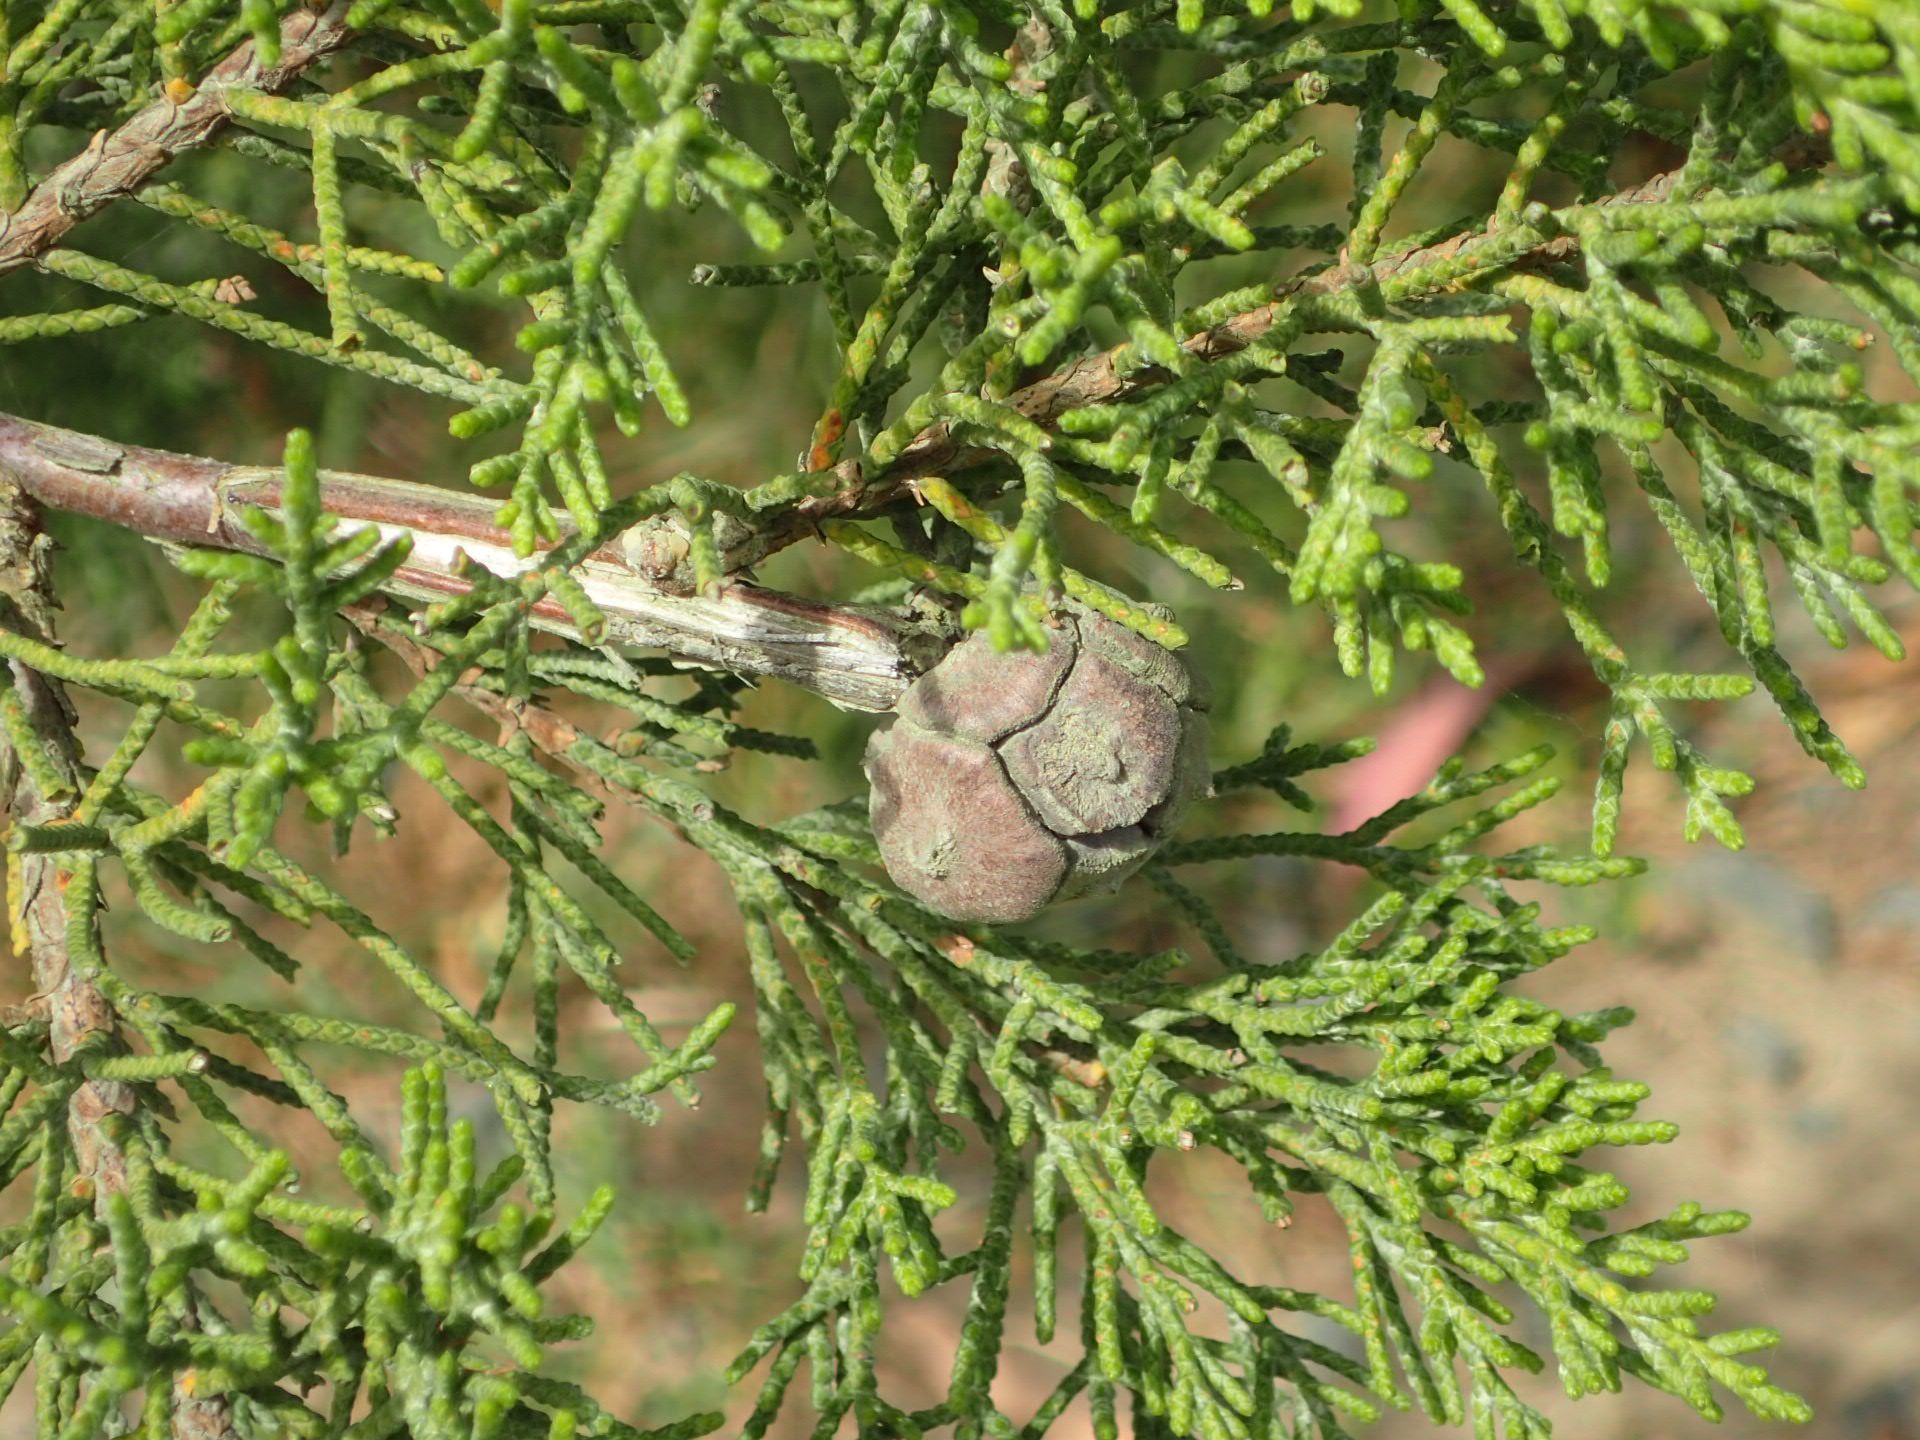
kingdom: Plantae
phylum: Tracheophyta
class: Pinopsida
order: Pinales
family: Cupressaceae
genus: Cupressus
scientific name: Cupressus macrocarpa
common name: Monterey cypress
